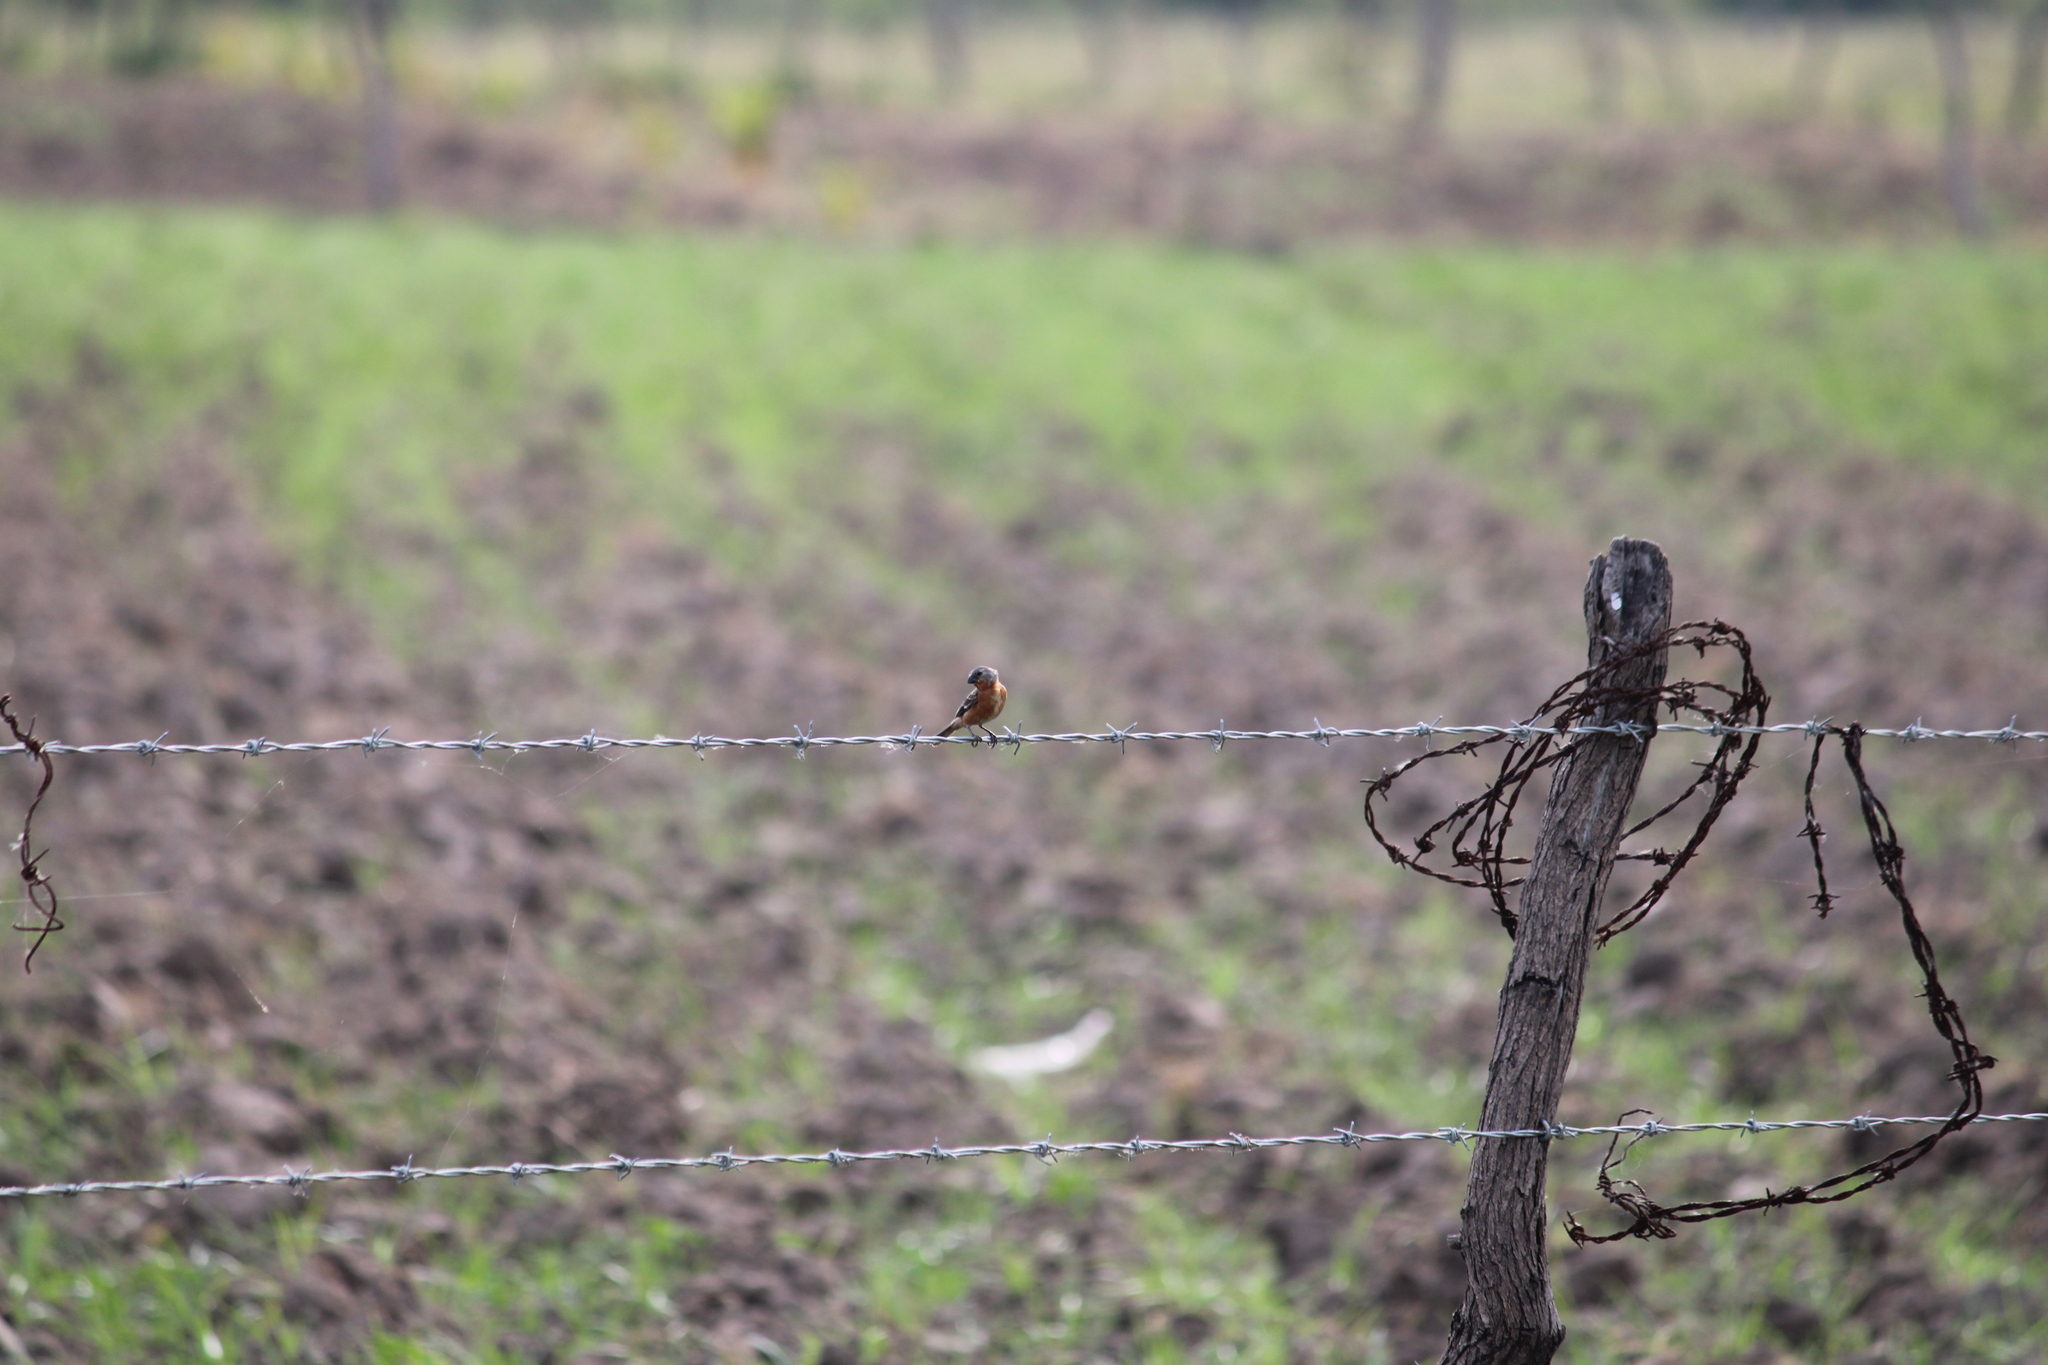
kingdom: Animalia
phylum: Chordata
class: Aves
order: Passeriformes
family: Thraupidae
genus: Sporophila
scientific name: Sporophila minuta
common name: Ruddy-breasted seedeater
